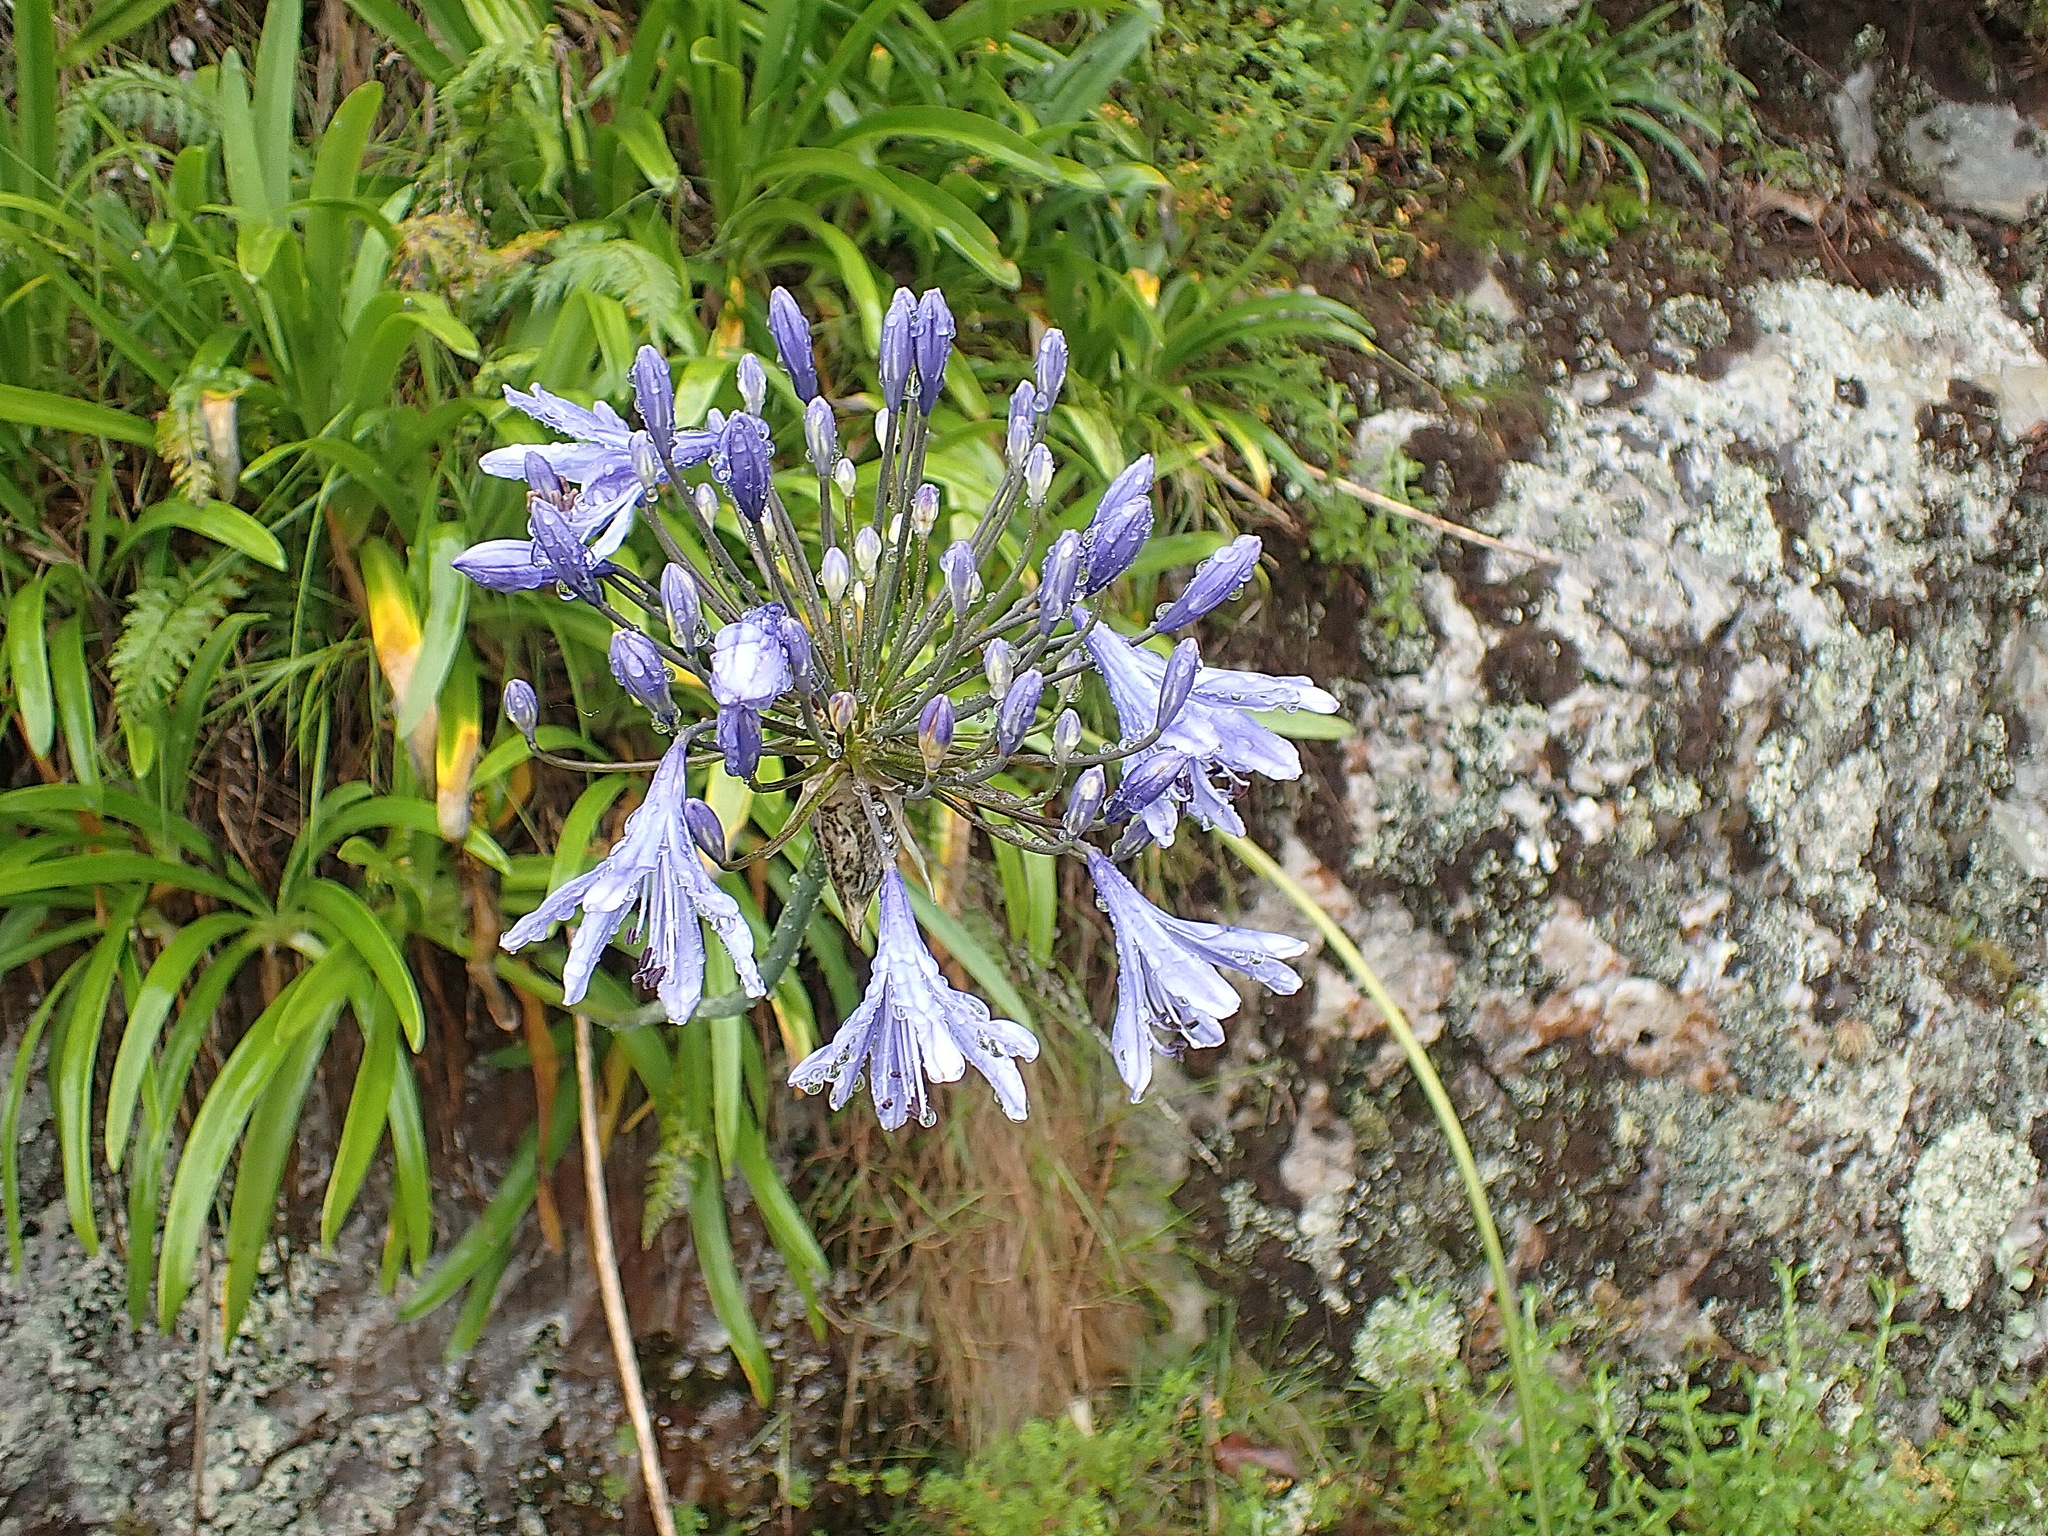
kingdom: Plantae
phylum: Tracheophyta
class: Liliopsida
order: Asparagales
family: Amaryllidaceae
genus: Agapanthus
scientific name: Agapanthus praecox
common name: African-lily
